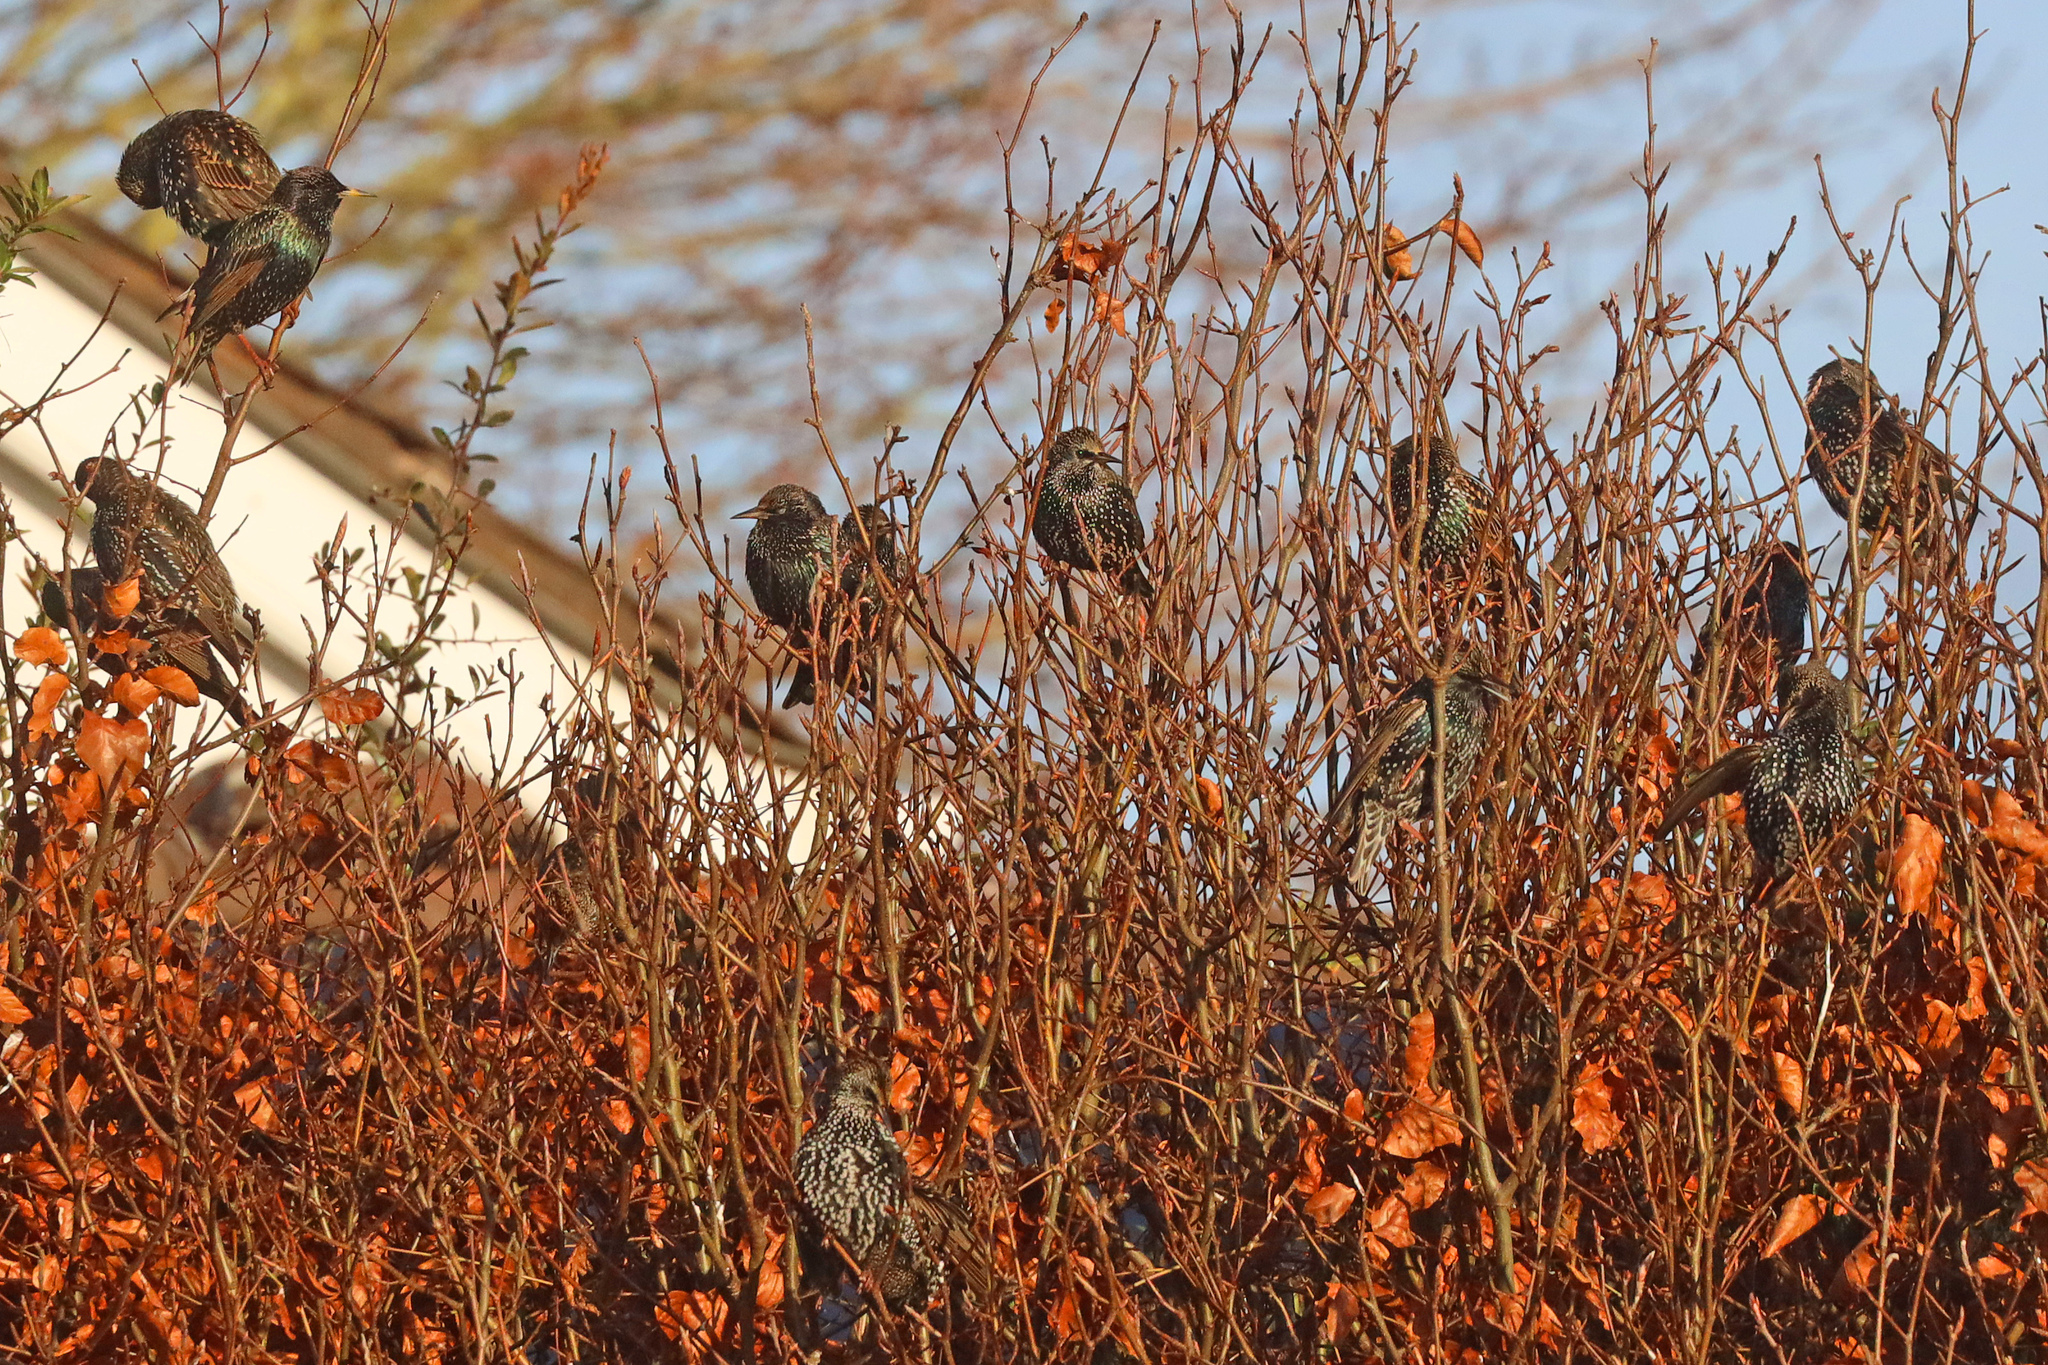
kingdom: Animalia
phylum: Chordata
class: Aves
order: Passeriformes
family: Sturnidae
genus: Sturnus
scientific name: Sturnus vulgaris
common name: Common starling
